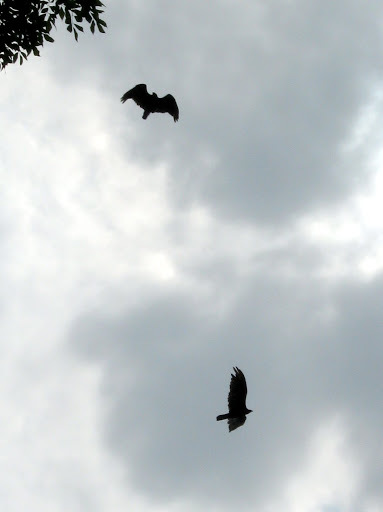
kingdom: Animalia
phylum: Chordata
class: Aves
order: Accipitriformes
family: Cathartidae
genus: Cathartes
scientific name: Cathartes aura
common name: Turkey vulture
